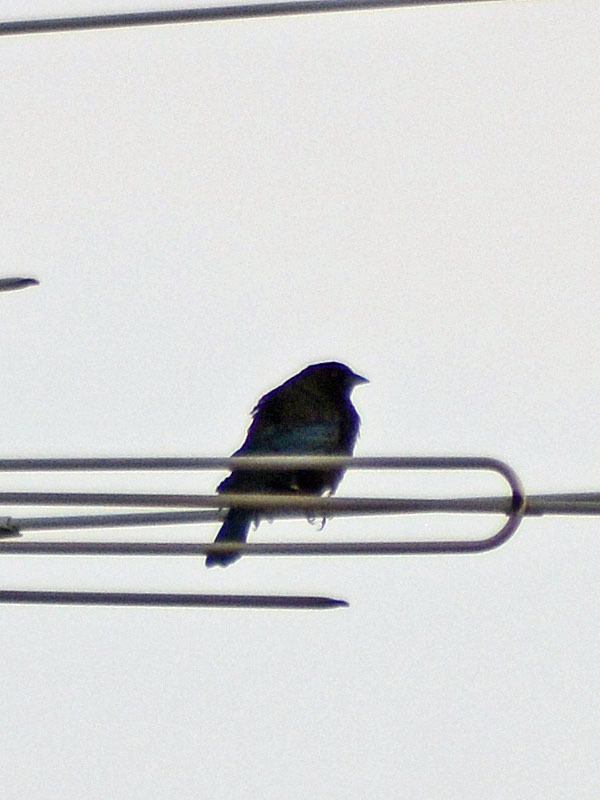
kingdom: Animalia
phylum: Chordata
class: Aves
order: Passeriformes
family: Icteridae
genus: Molothrus
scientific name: Molothrus aeneus
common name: Bronzed cowbird
